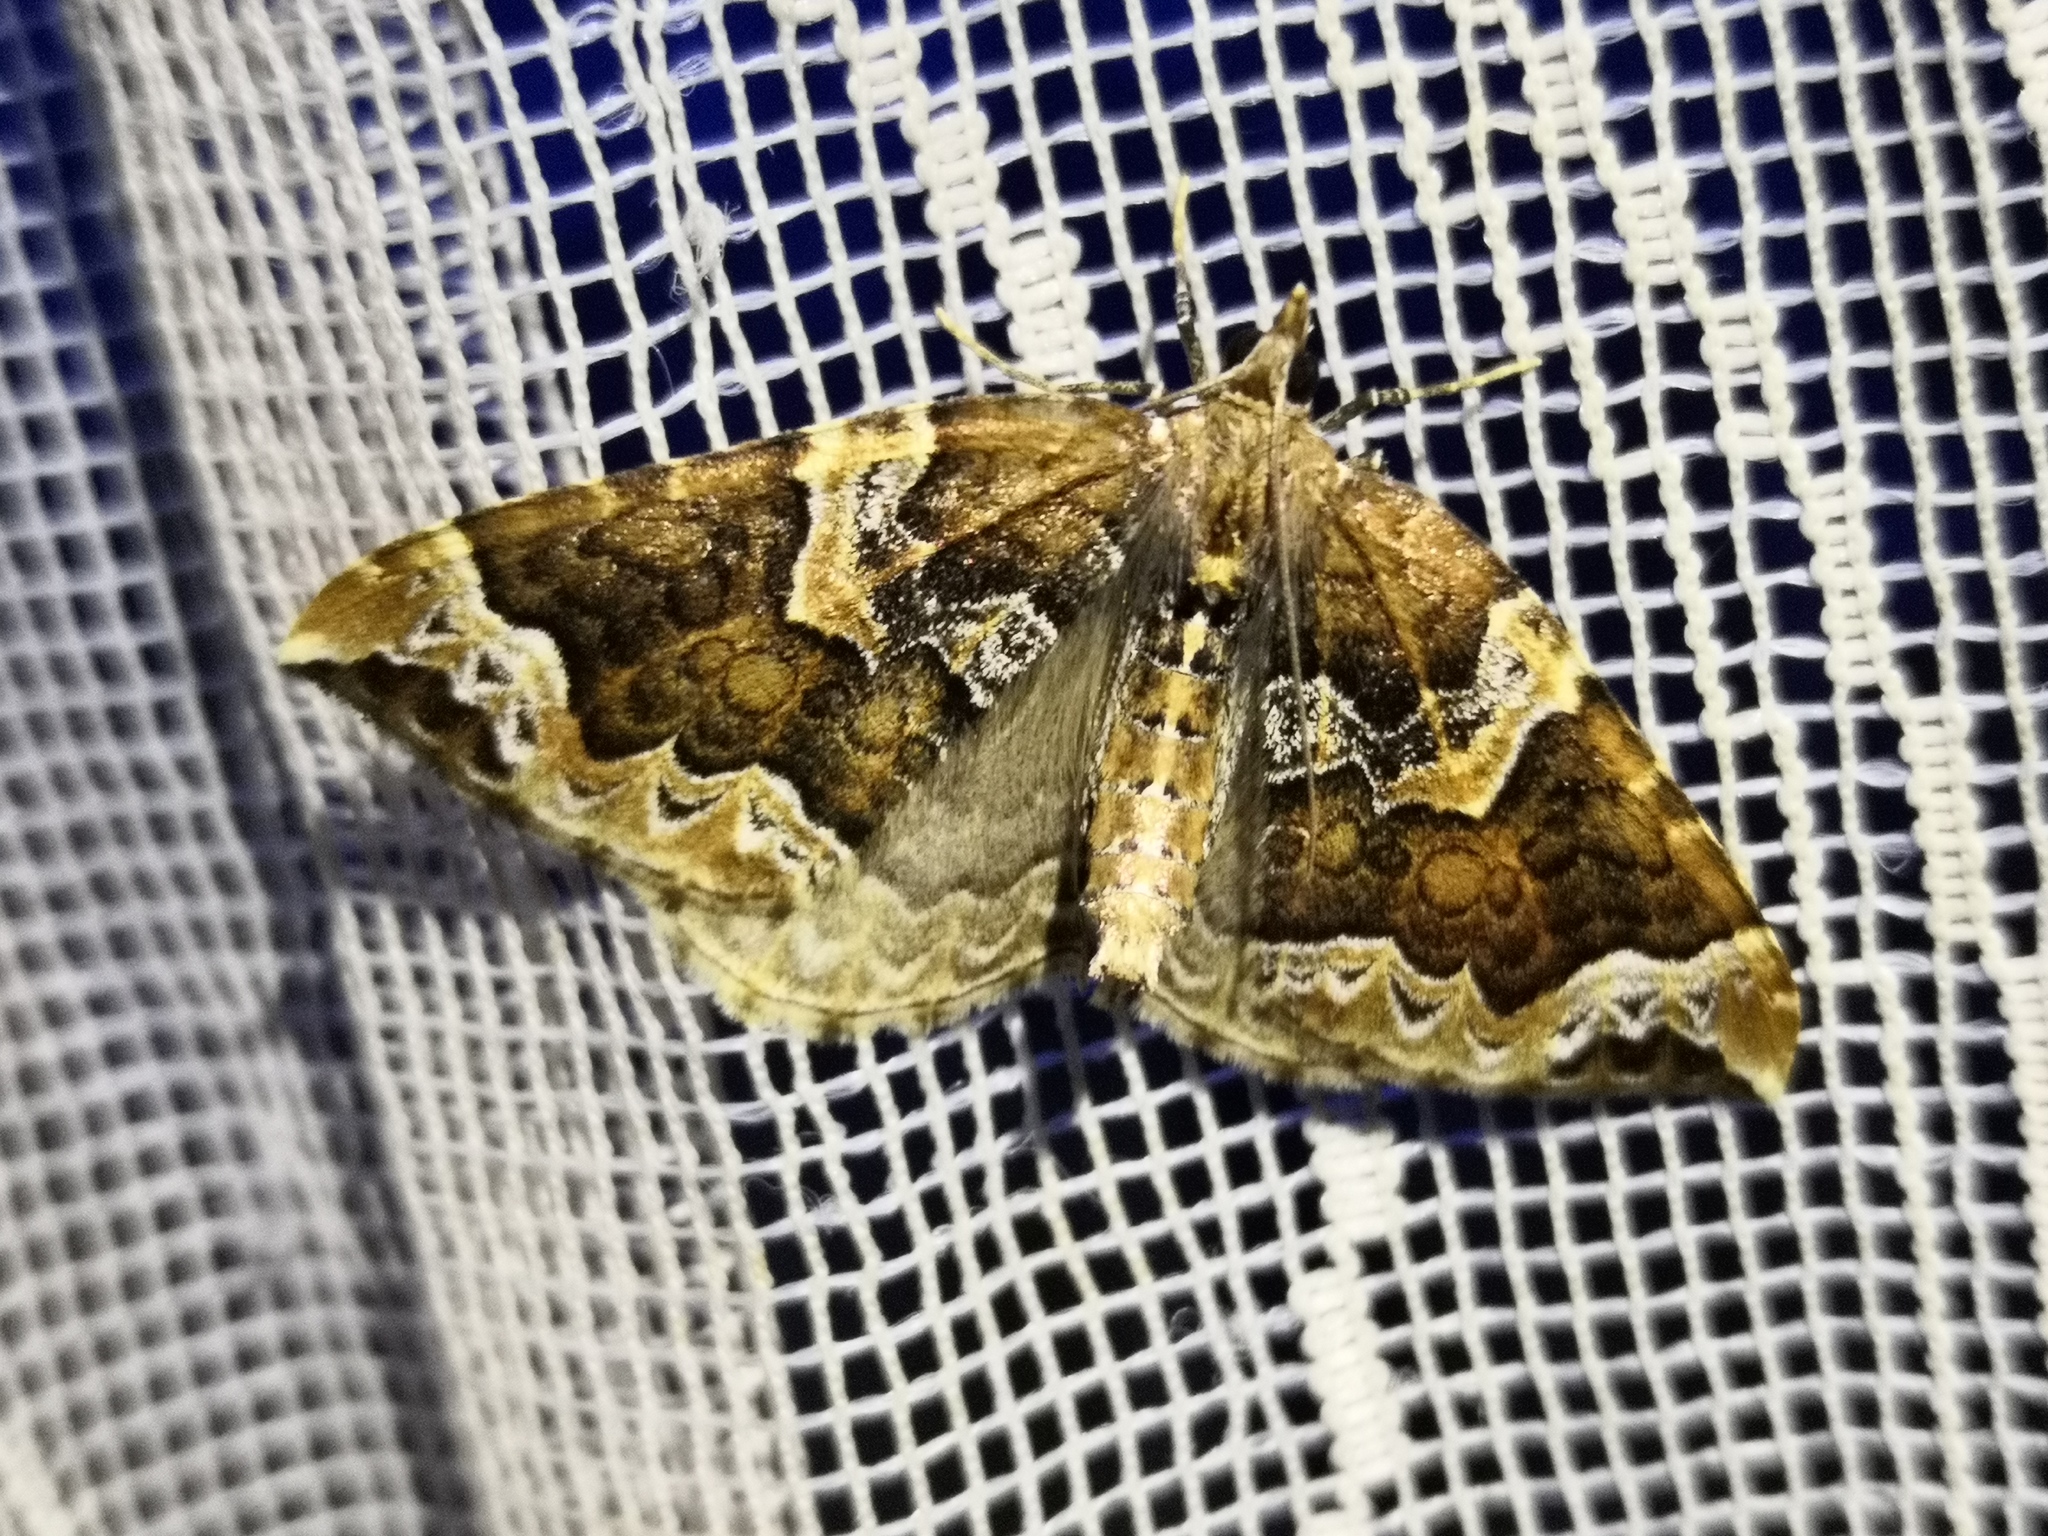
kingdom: Animalia
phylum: Arthropoda
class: Insecta
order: Lepidoptera
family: Geometridae
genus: Eulithis
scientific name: Eulithis prunata
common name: Phoenix
